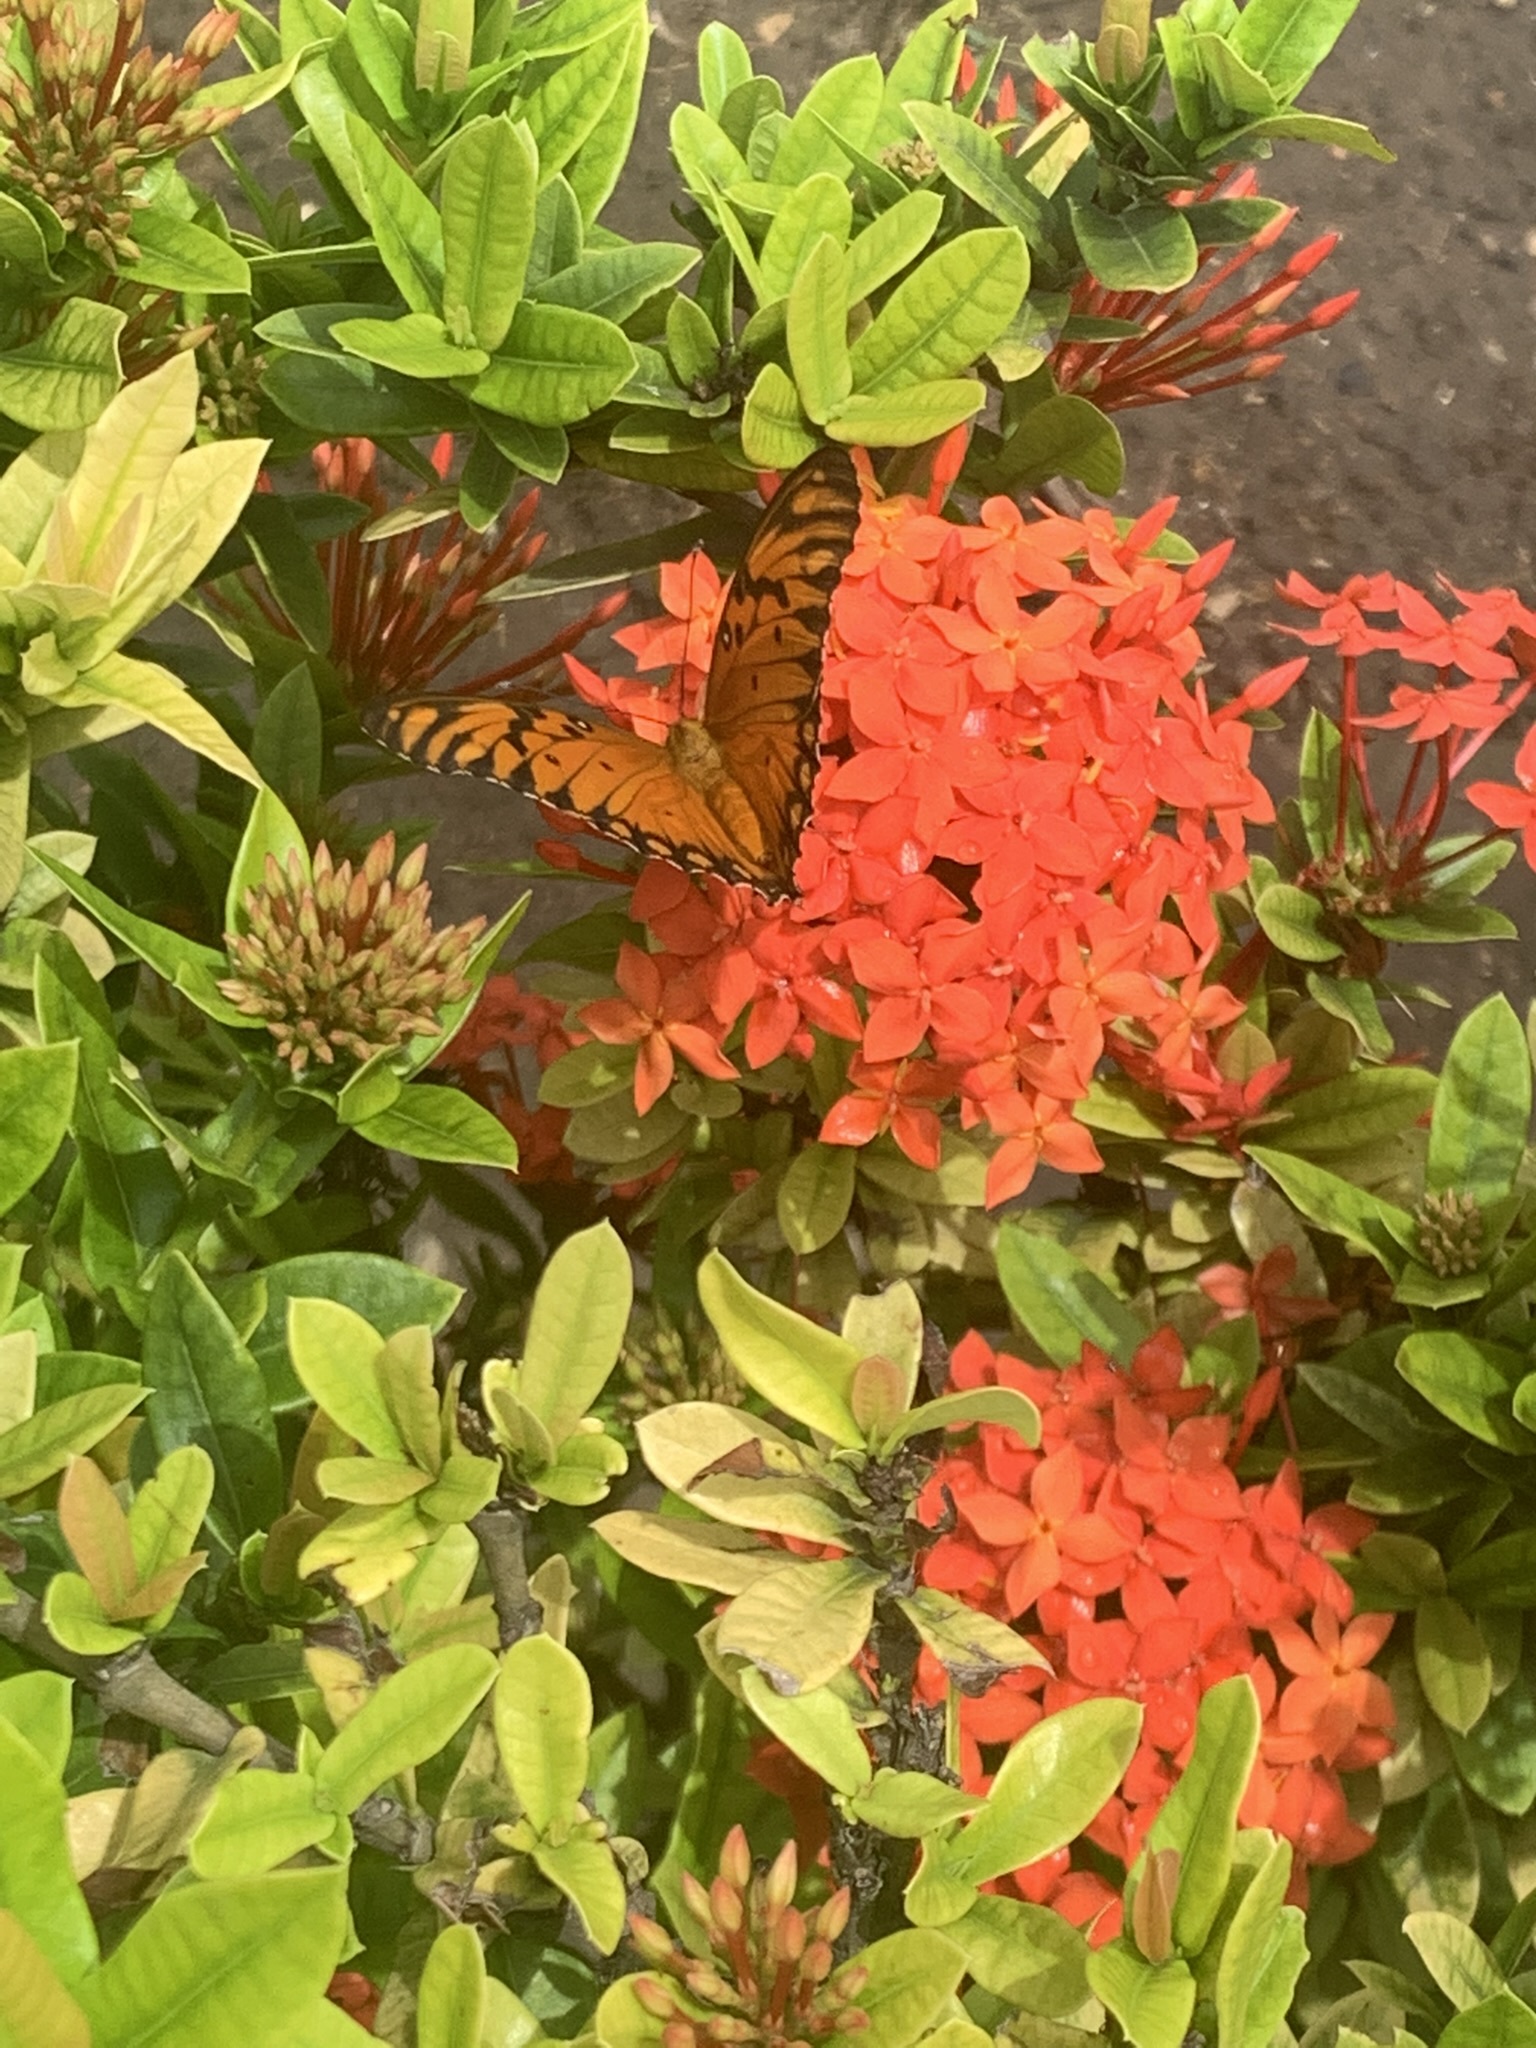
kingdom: Animalia
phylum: Arthropoda
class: Insecta
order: Lepidoptera
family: Nymphalidae
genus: Dione
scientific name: Dione vanillae
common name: Gulf fritillary
